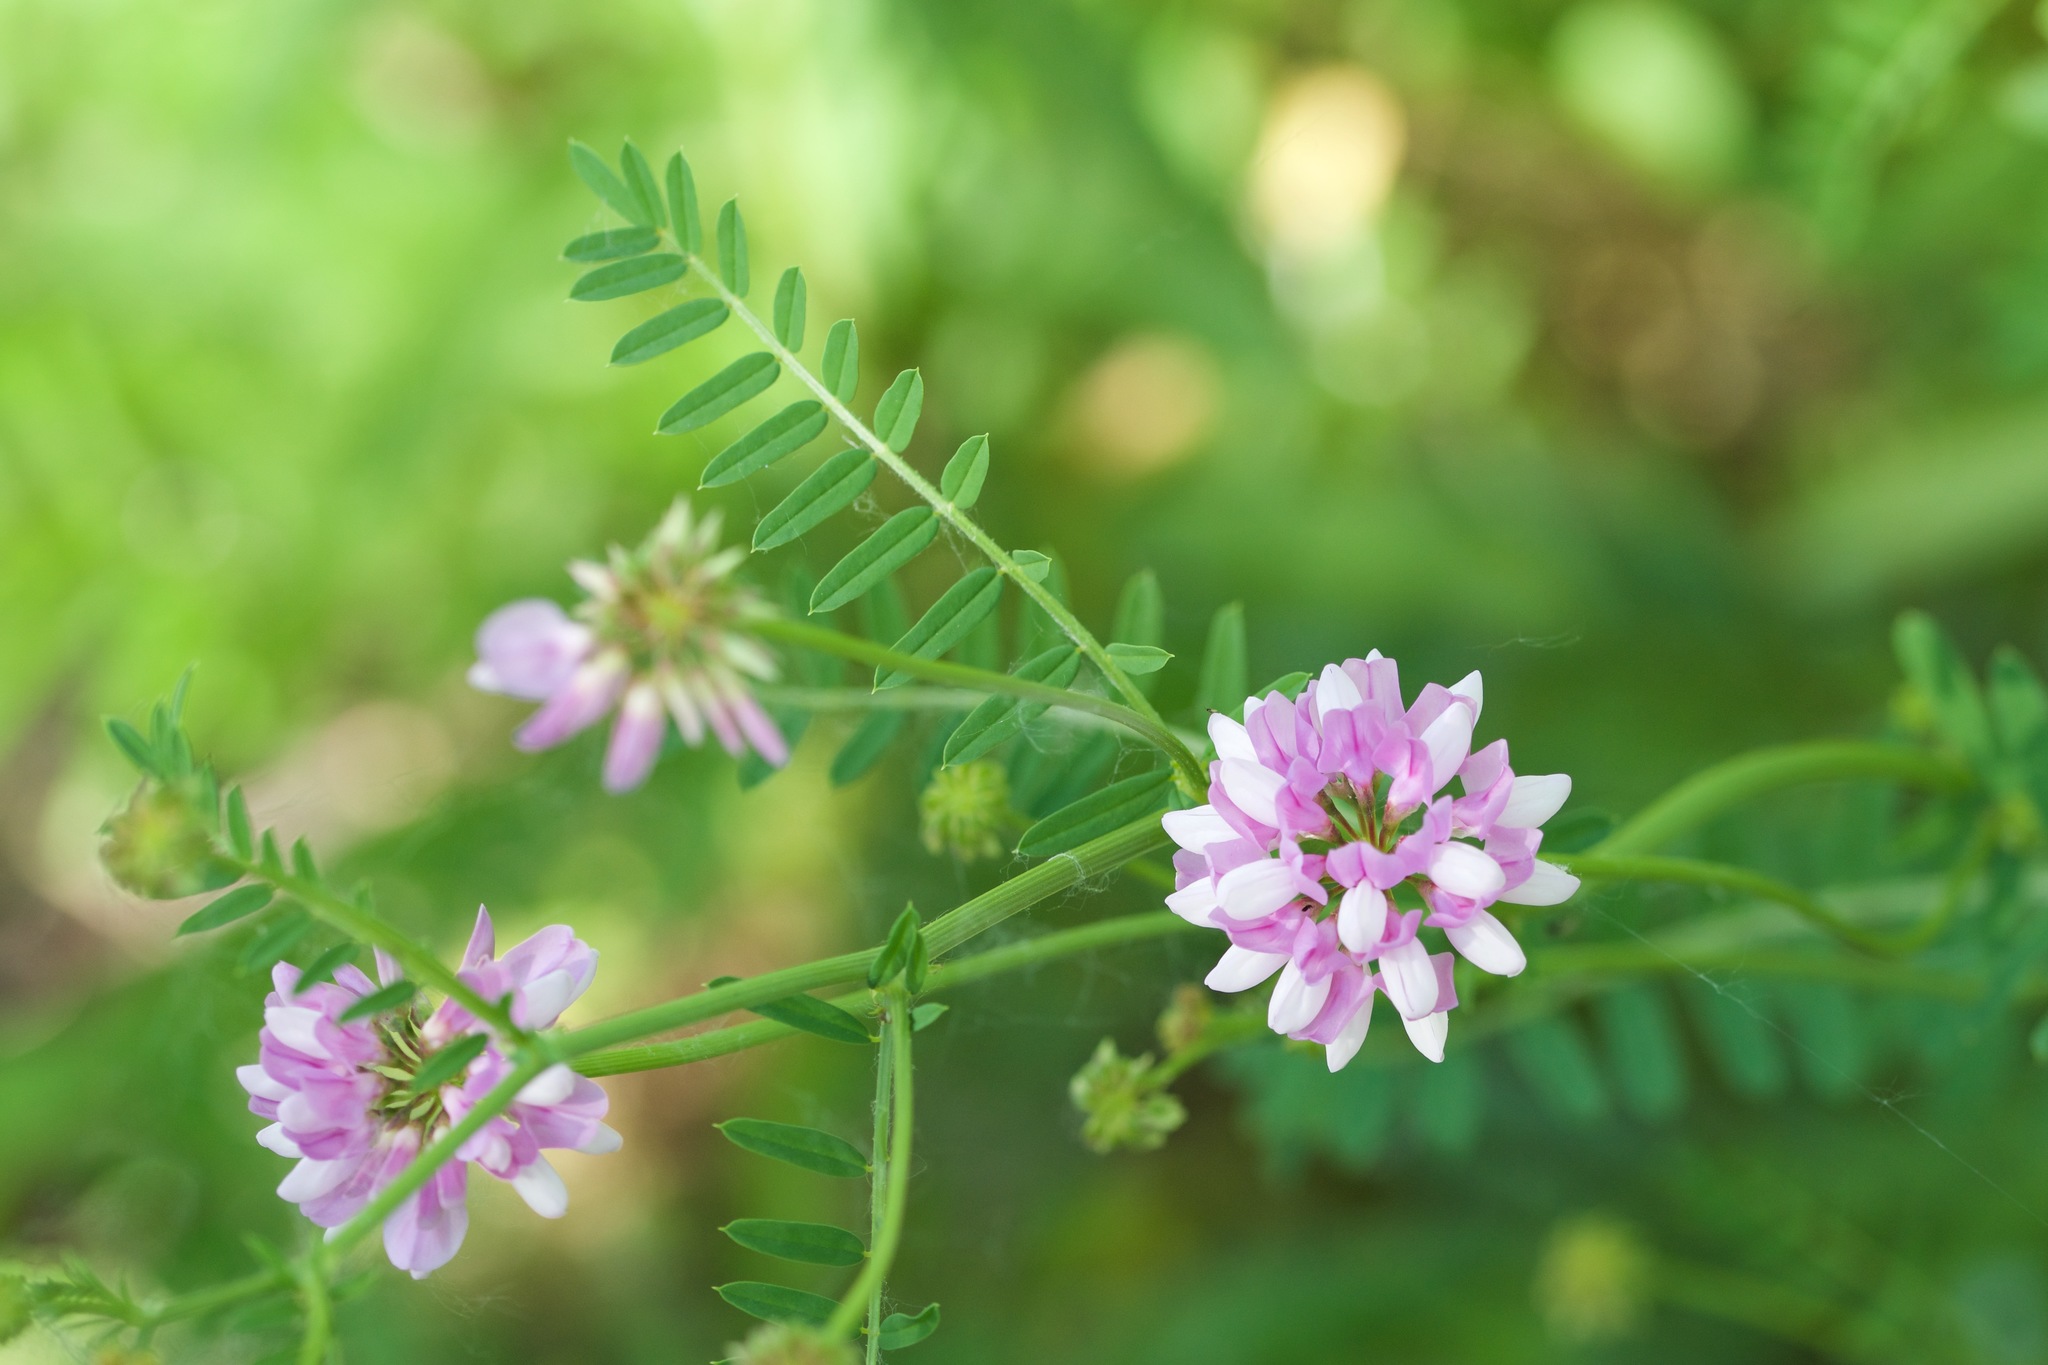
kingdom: Plantae
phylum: Tracheophyta
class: Magnoliopsida
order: Fabales
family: Fabaceae
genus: Coronilla
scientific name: Coronilla varia
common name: Crownvetch
